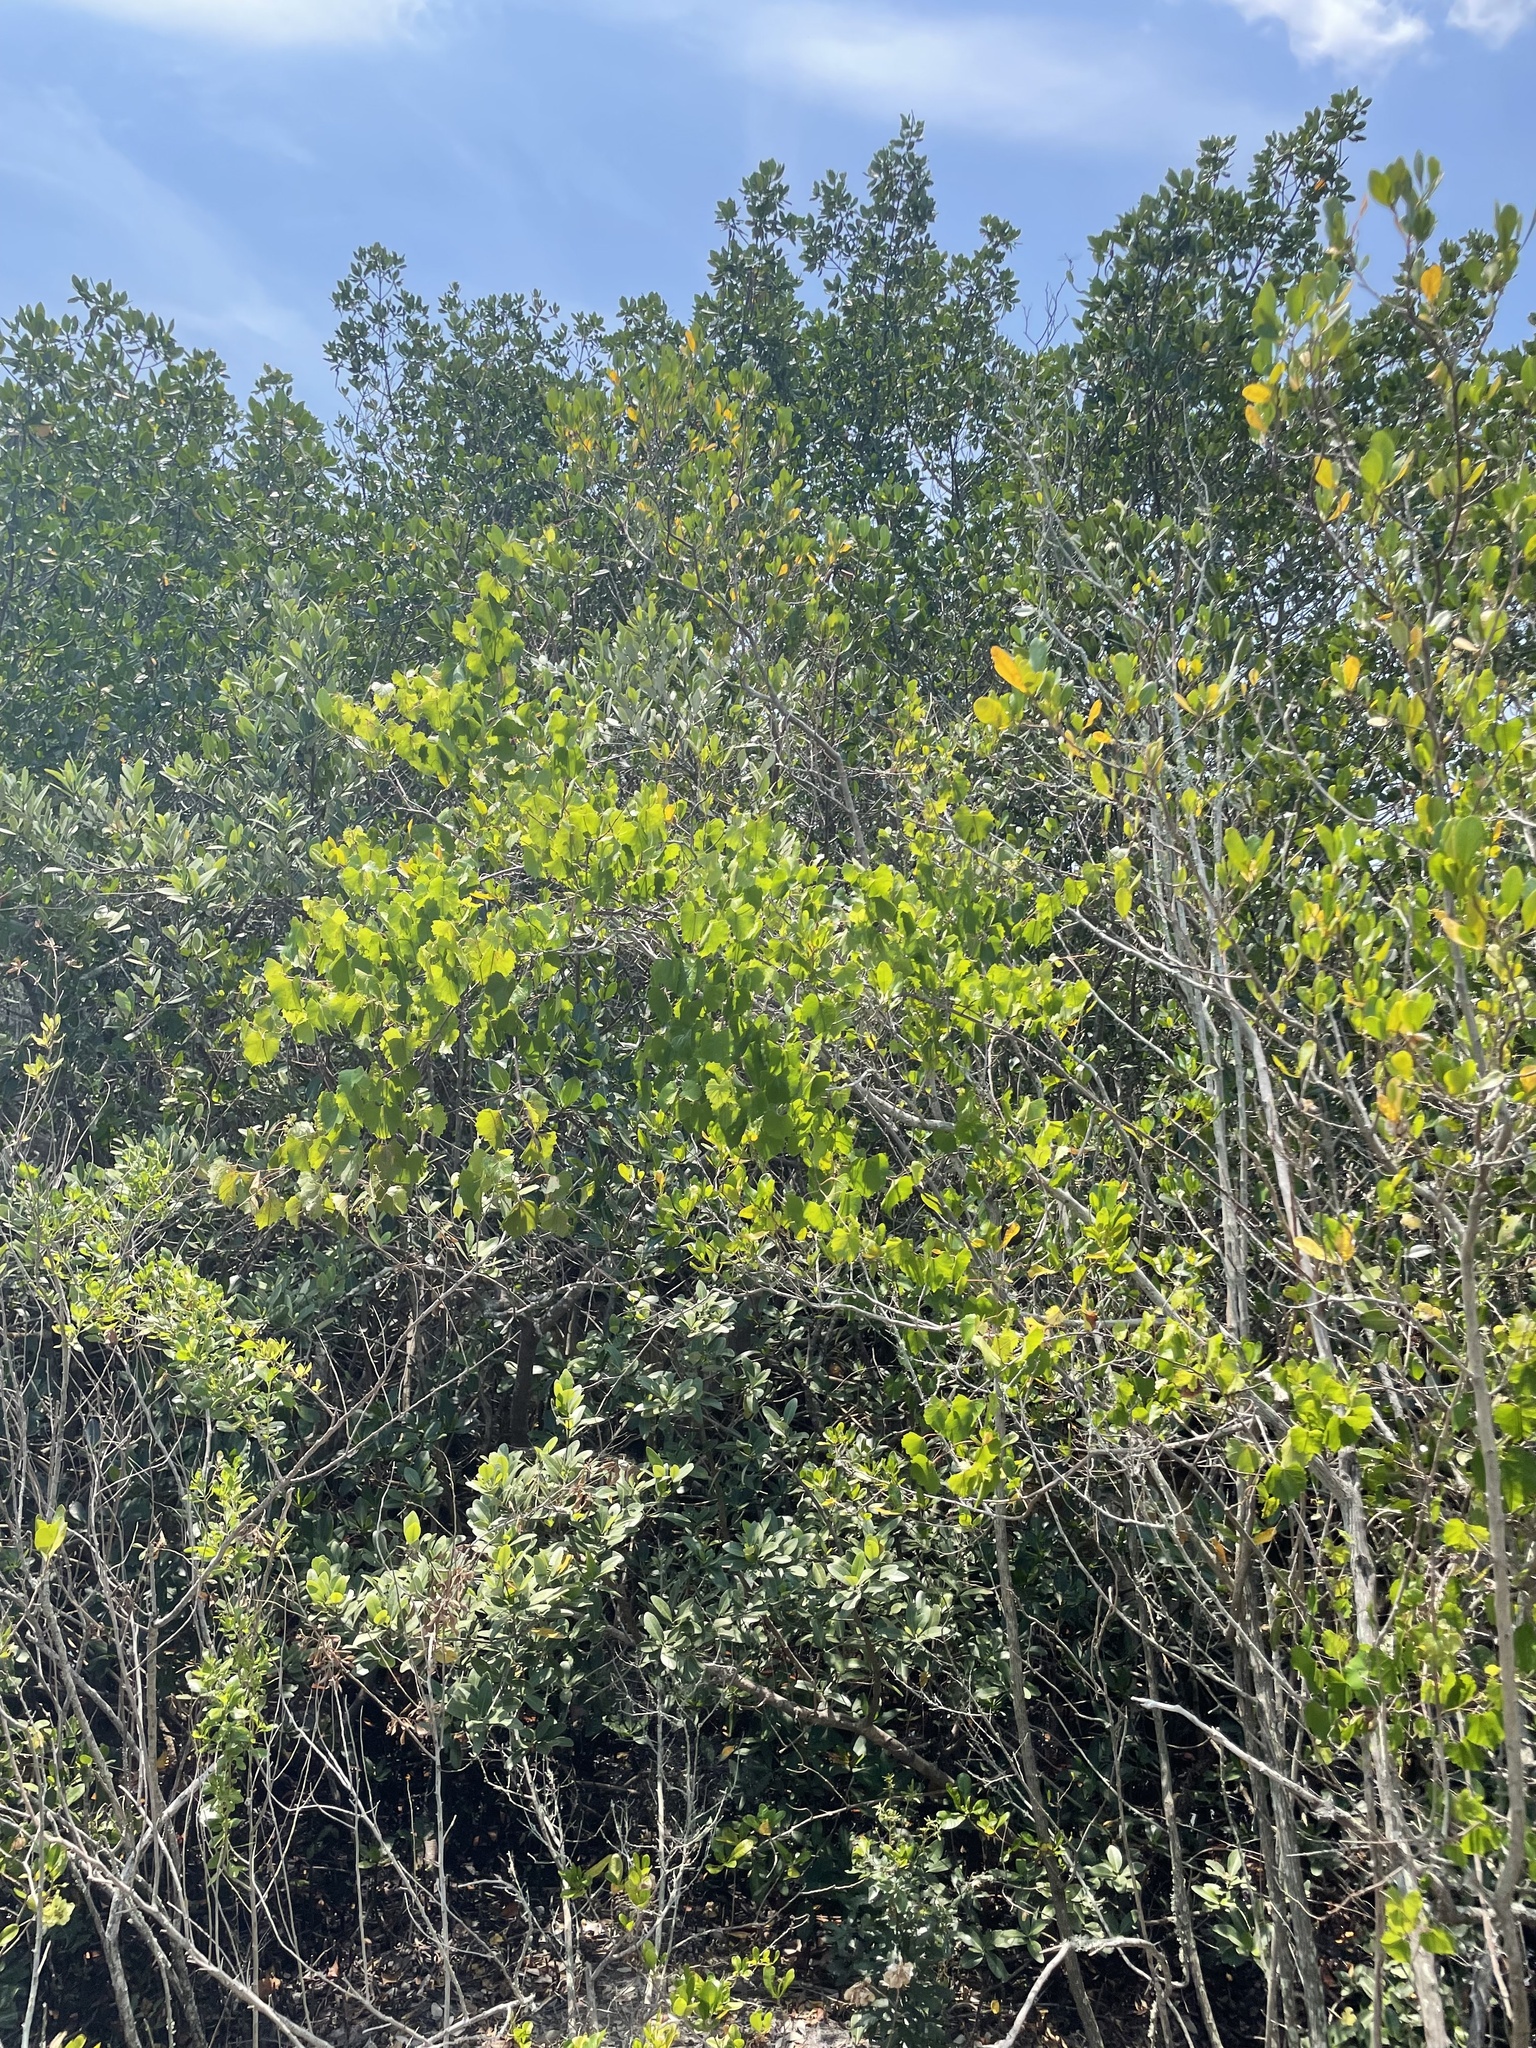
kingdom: Plantae
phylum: Tracheophyta
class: Magnoliopsida
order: Vitales
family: Vitaceae
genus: Vitis
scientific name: Vitis rotundifolia
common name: Muscadine grape
